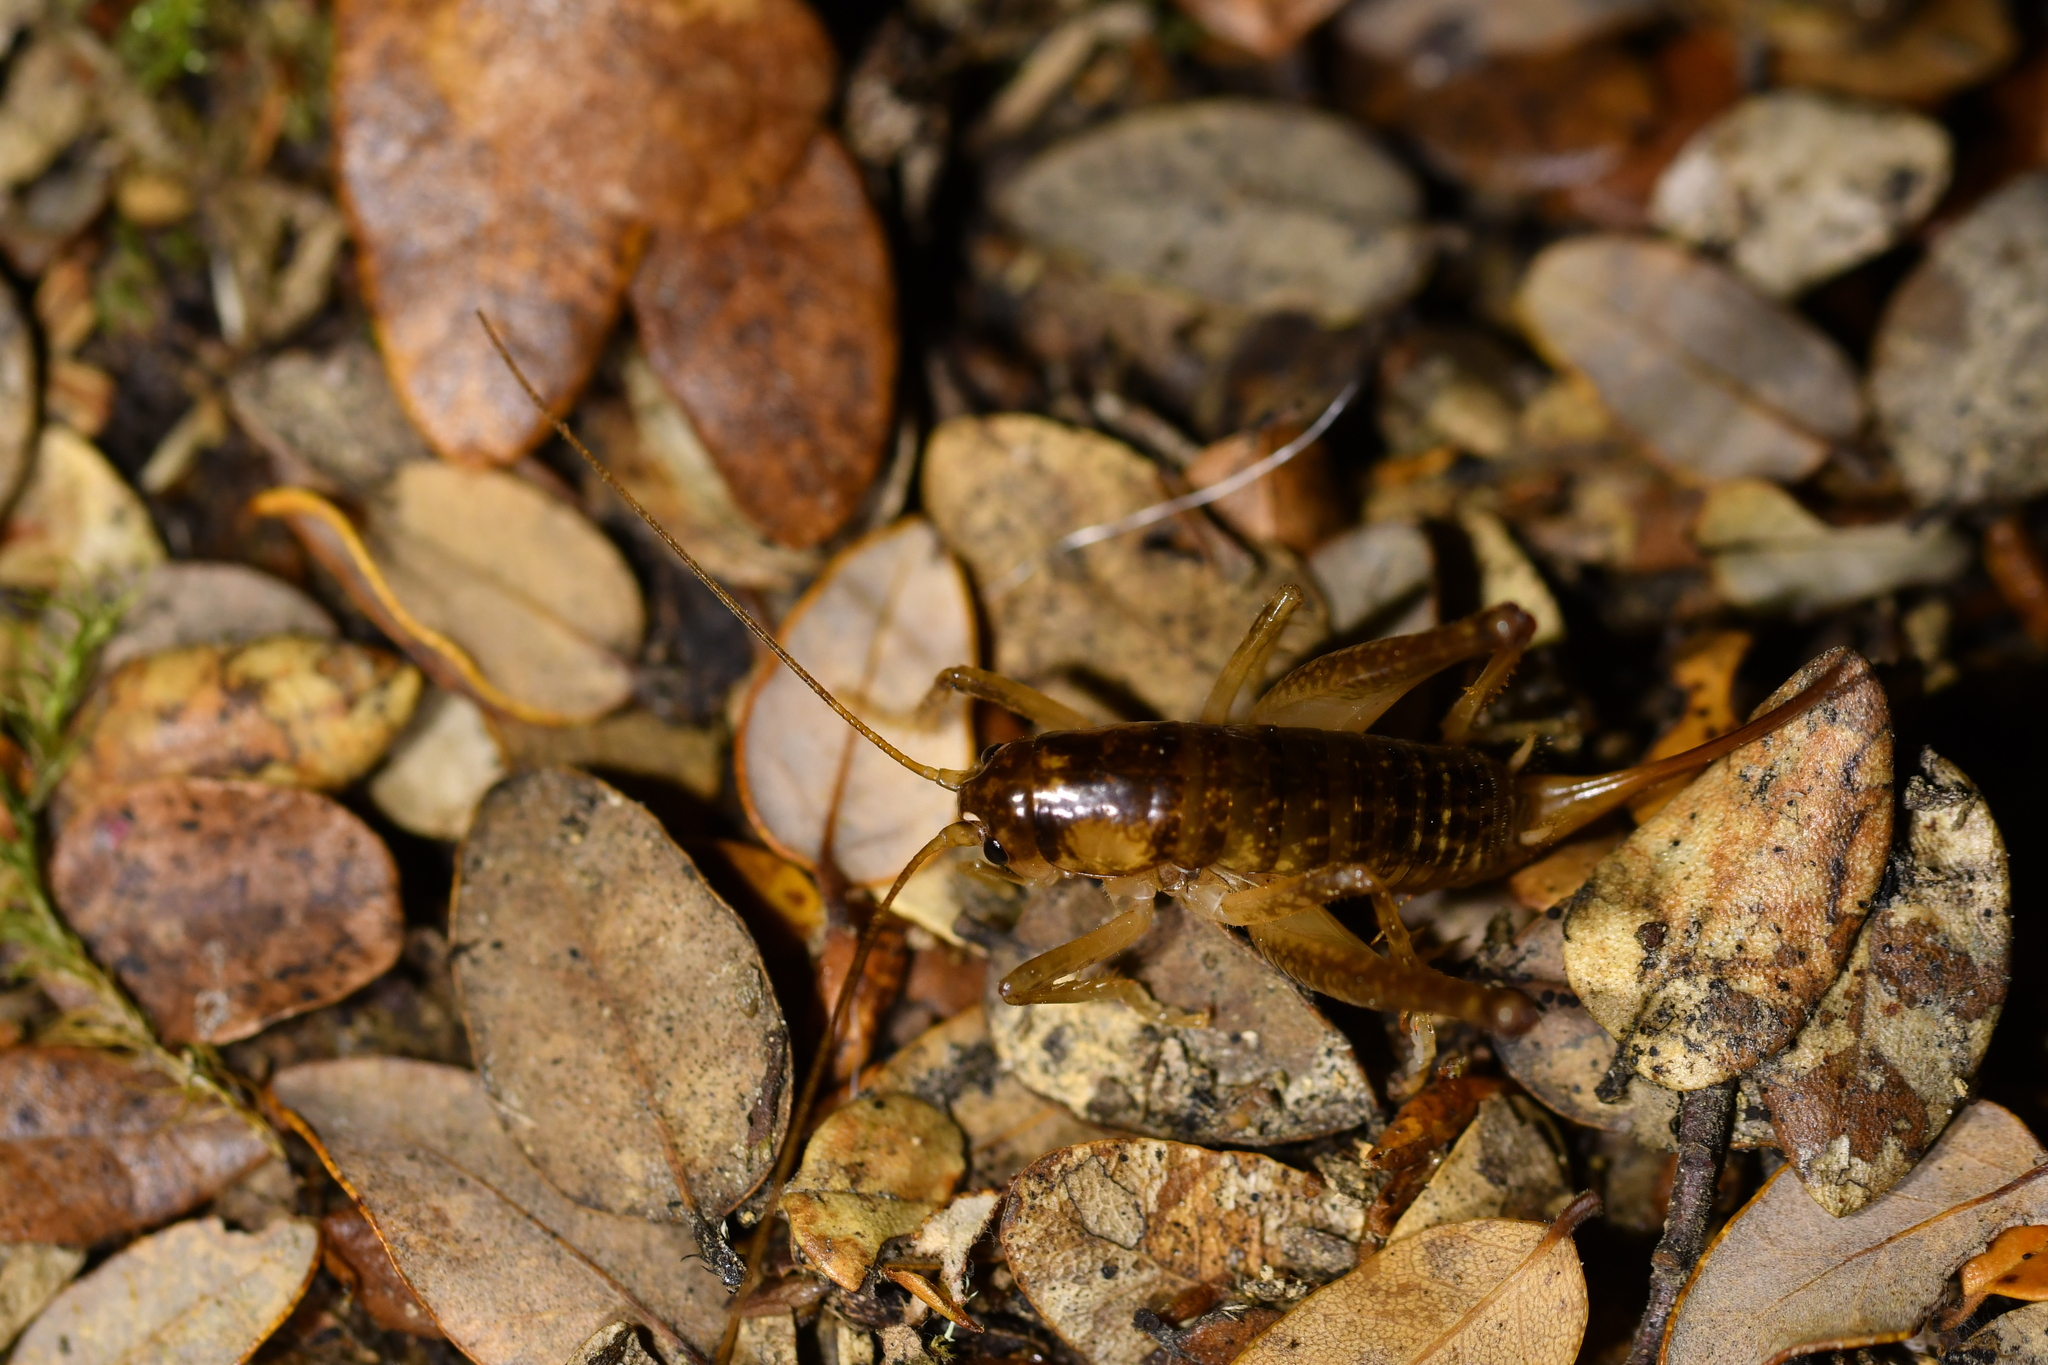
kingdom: Animalia
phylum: Arthropoda
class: Insecta
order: Orthoptera
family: Anostostomatidae
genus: Hemiandrus
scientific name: Hemiandrus maculifrons
